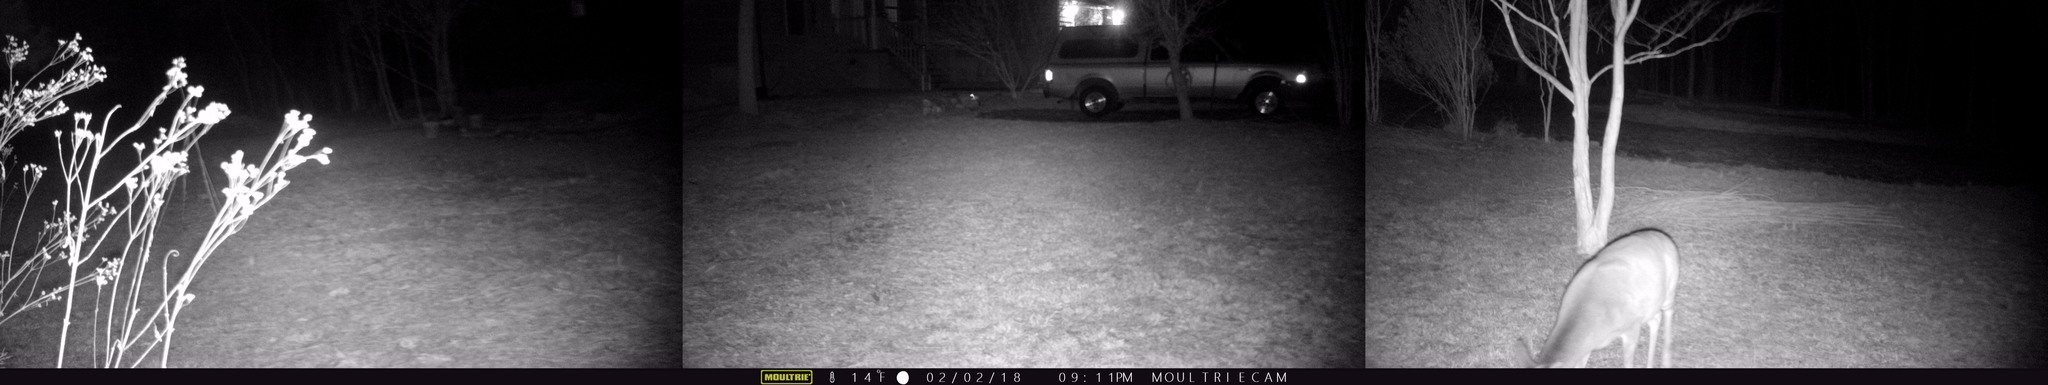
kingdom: Animalia
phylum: Chordata
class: Mammalia
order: Artiodactyla
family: Cervidae
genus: Odocoileus
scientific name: Odocoileus virginianus
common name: White-tailed deer
